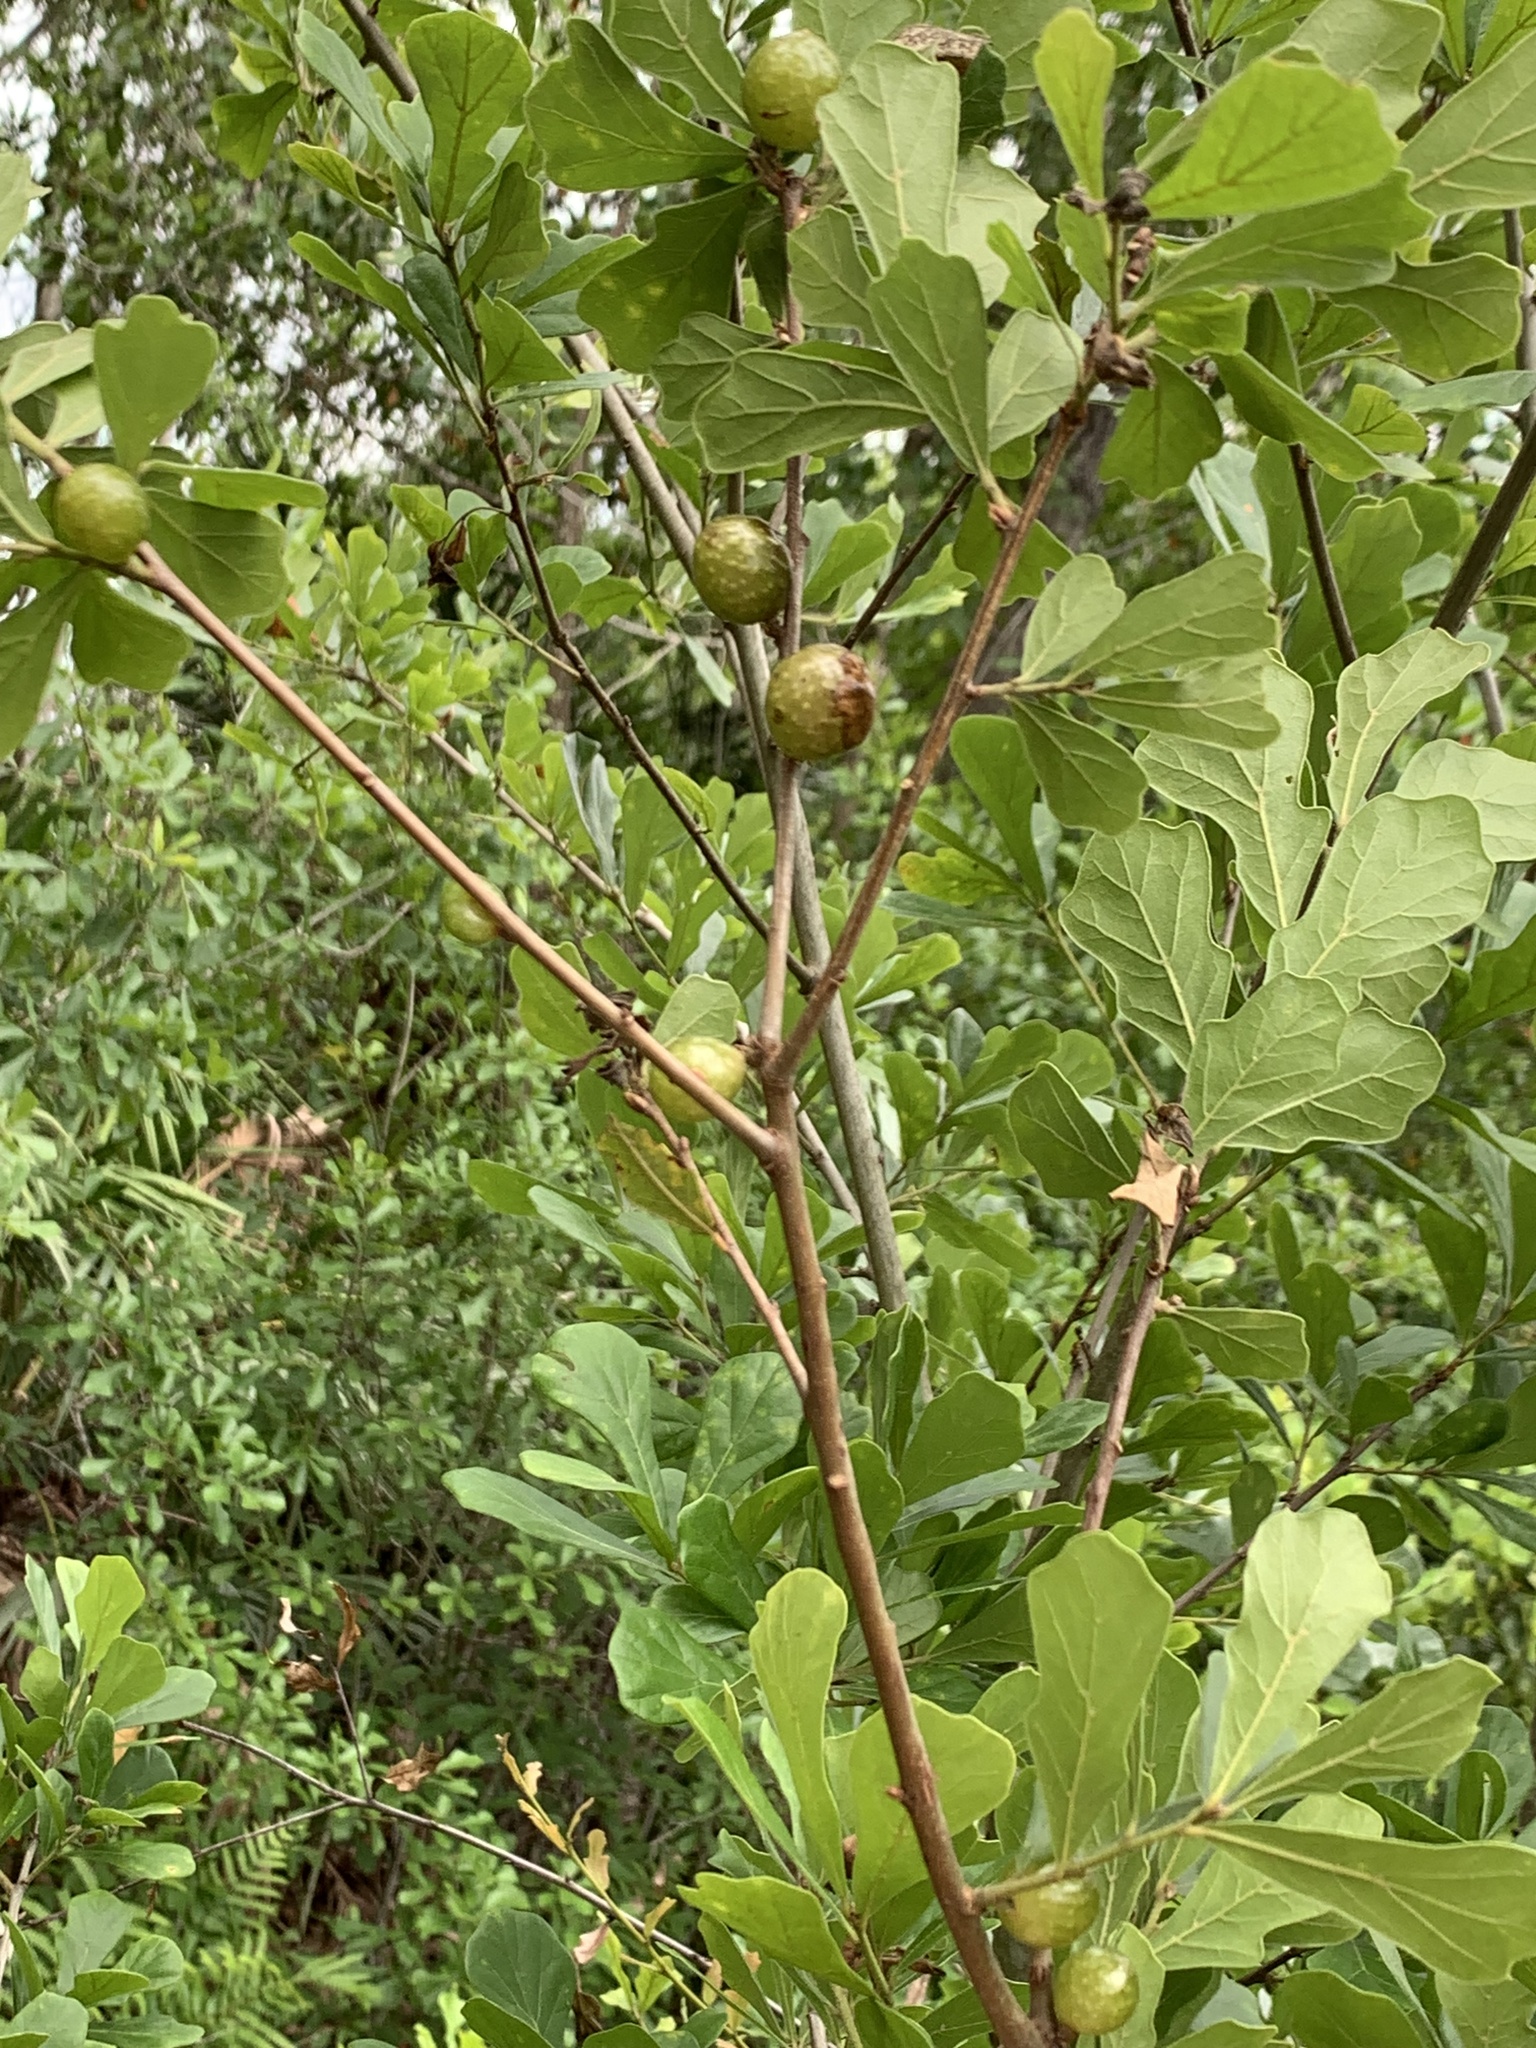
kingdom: Animalia
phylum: Arthropoda
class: Insecta
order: Hymenoptera
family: Cynipidae
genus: Amphibolips
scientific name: Amphibolips
